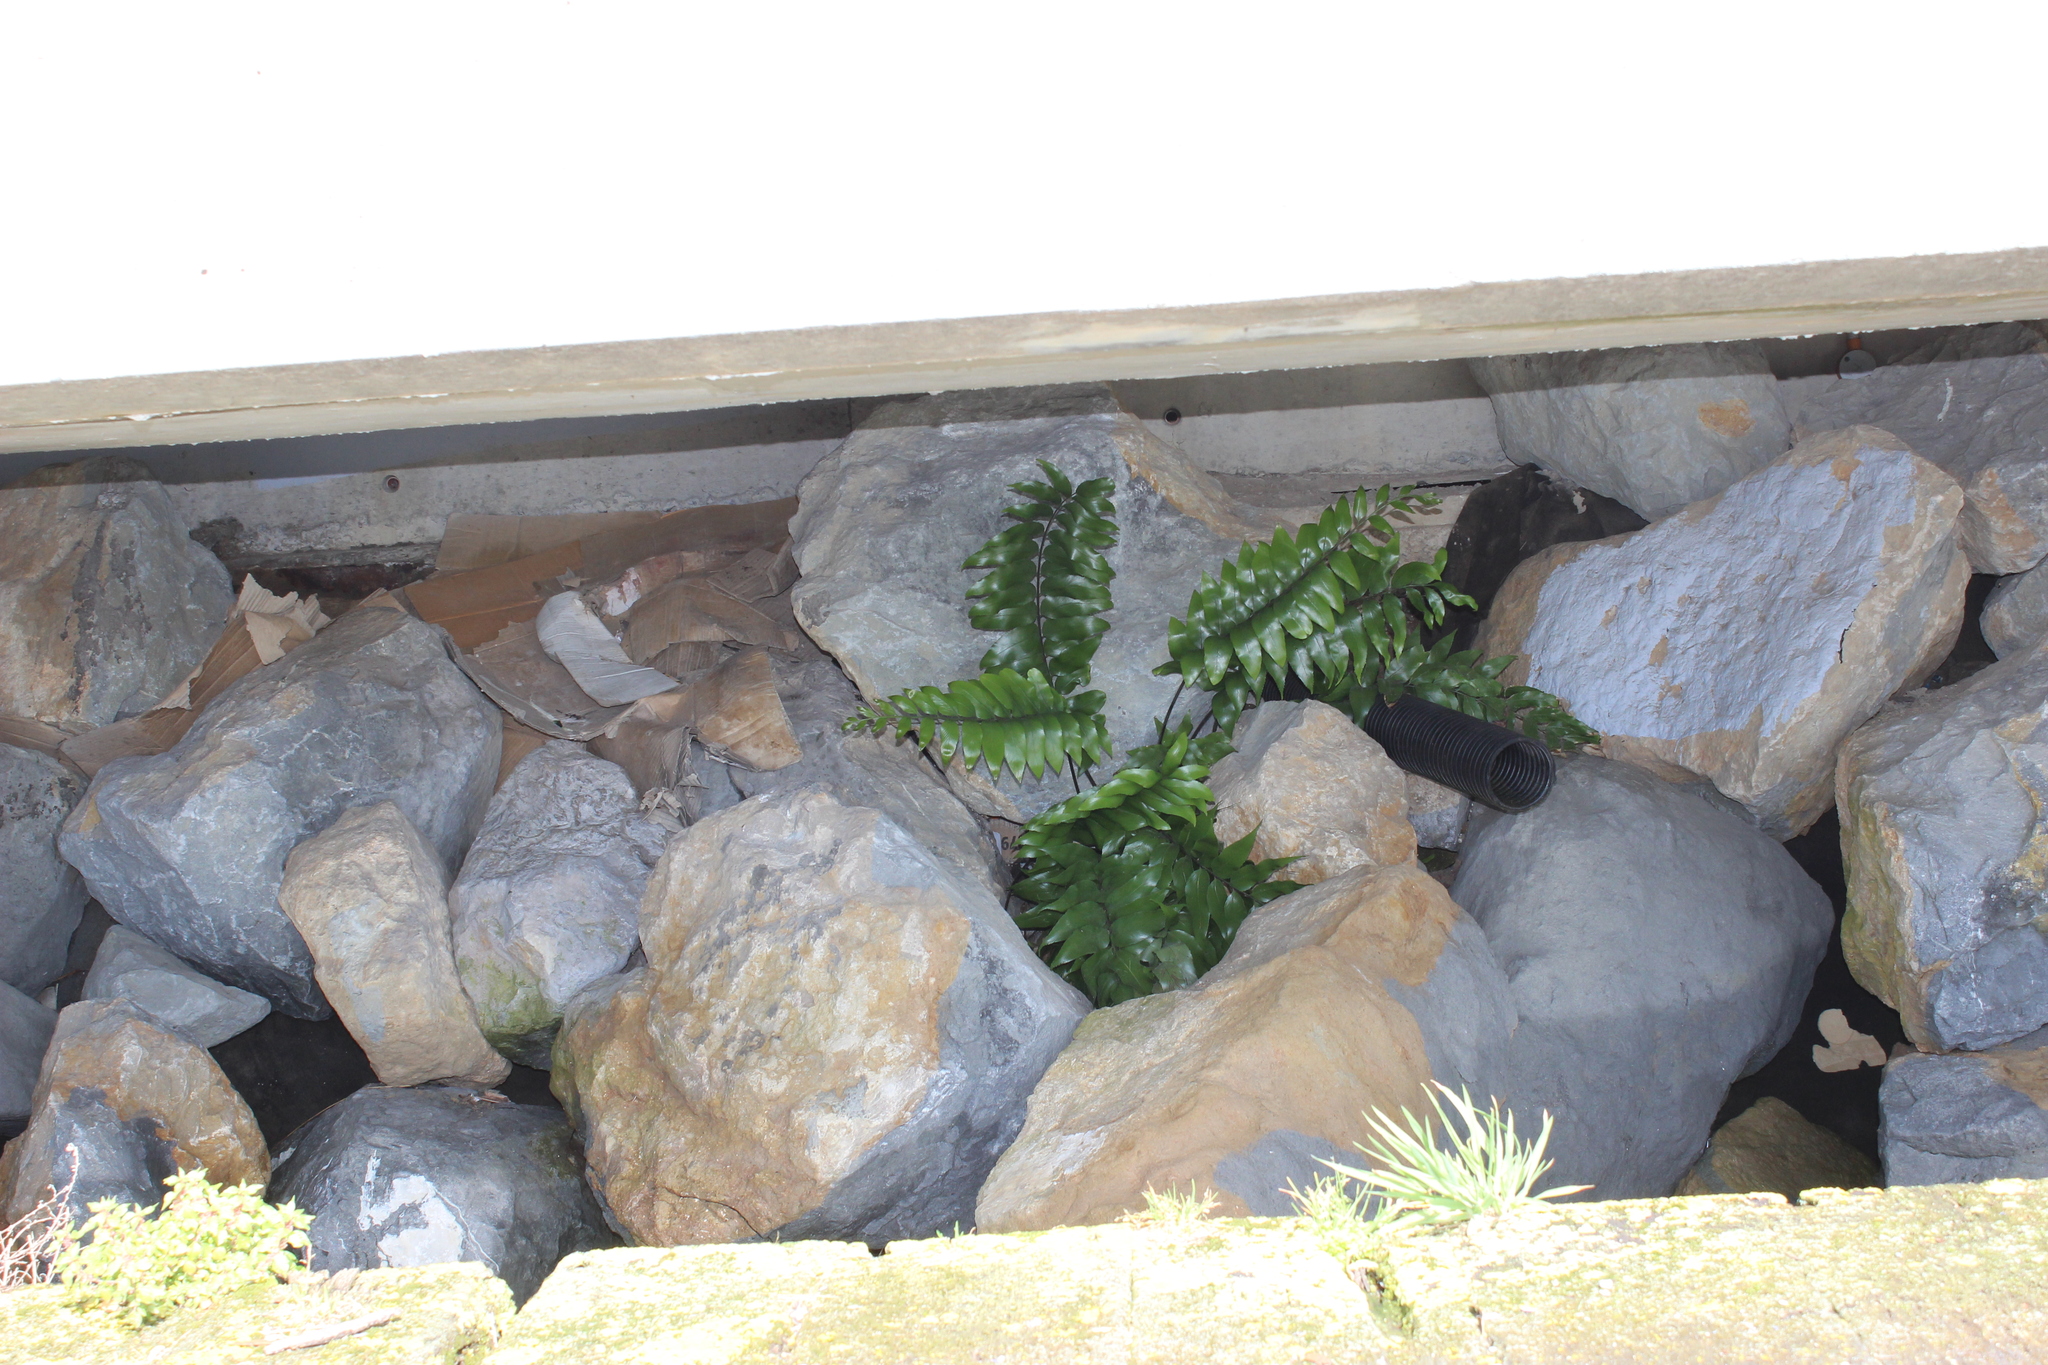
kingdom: Plantae
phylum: Tracheophyta
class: Polypodiopsida
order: Polypodiales
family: Aspleniaceae
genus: Asplenium
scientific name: Asplenium oblongifolium
